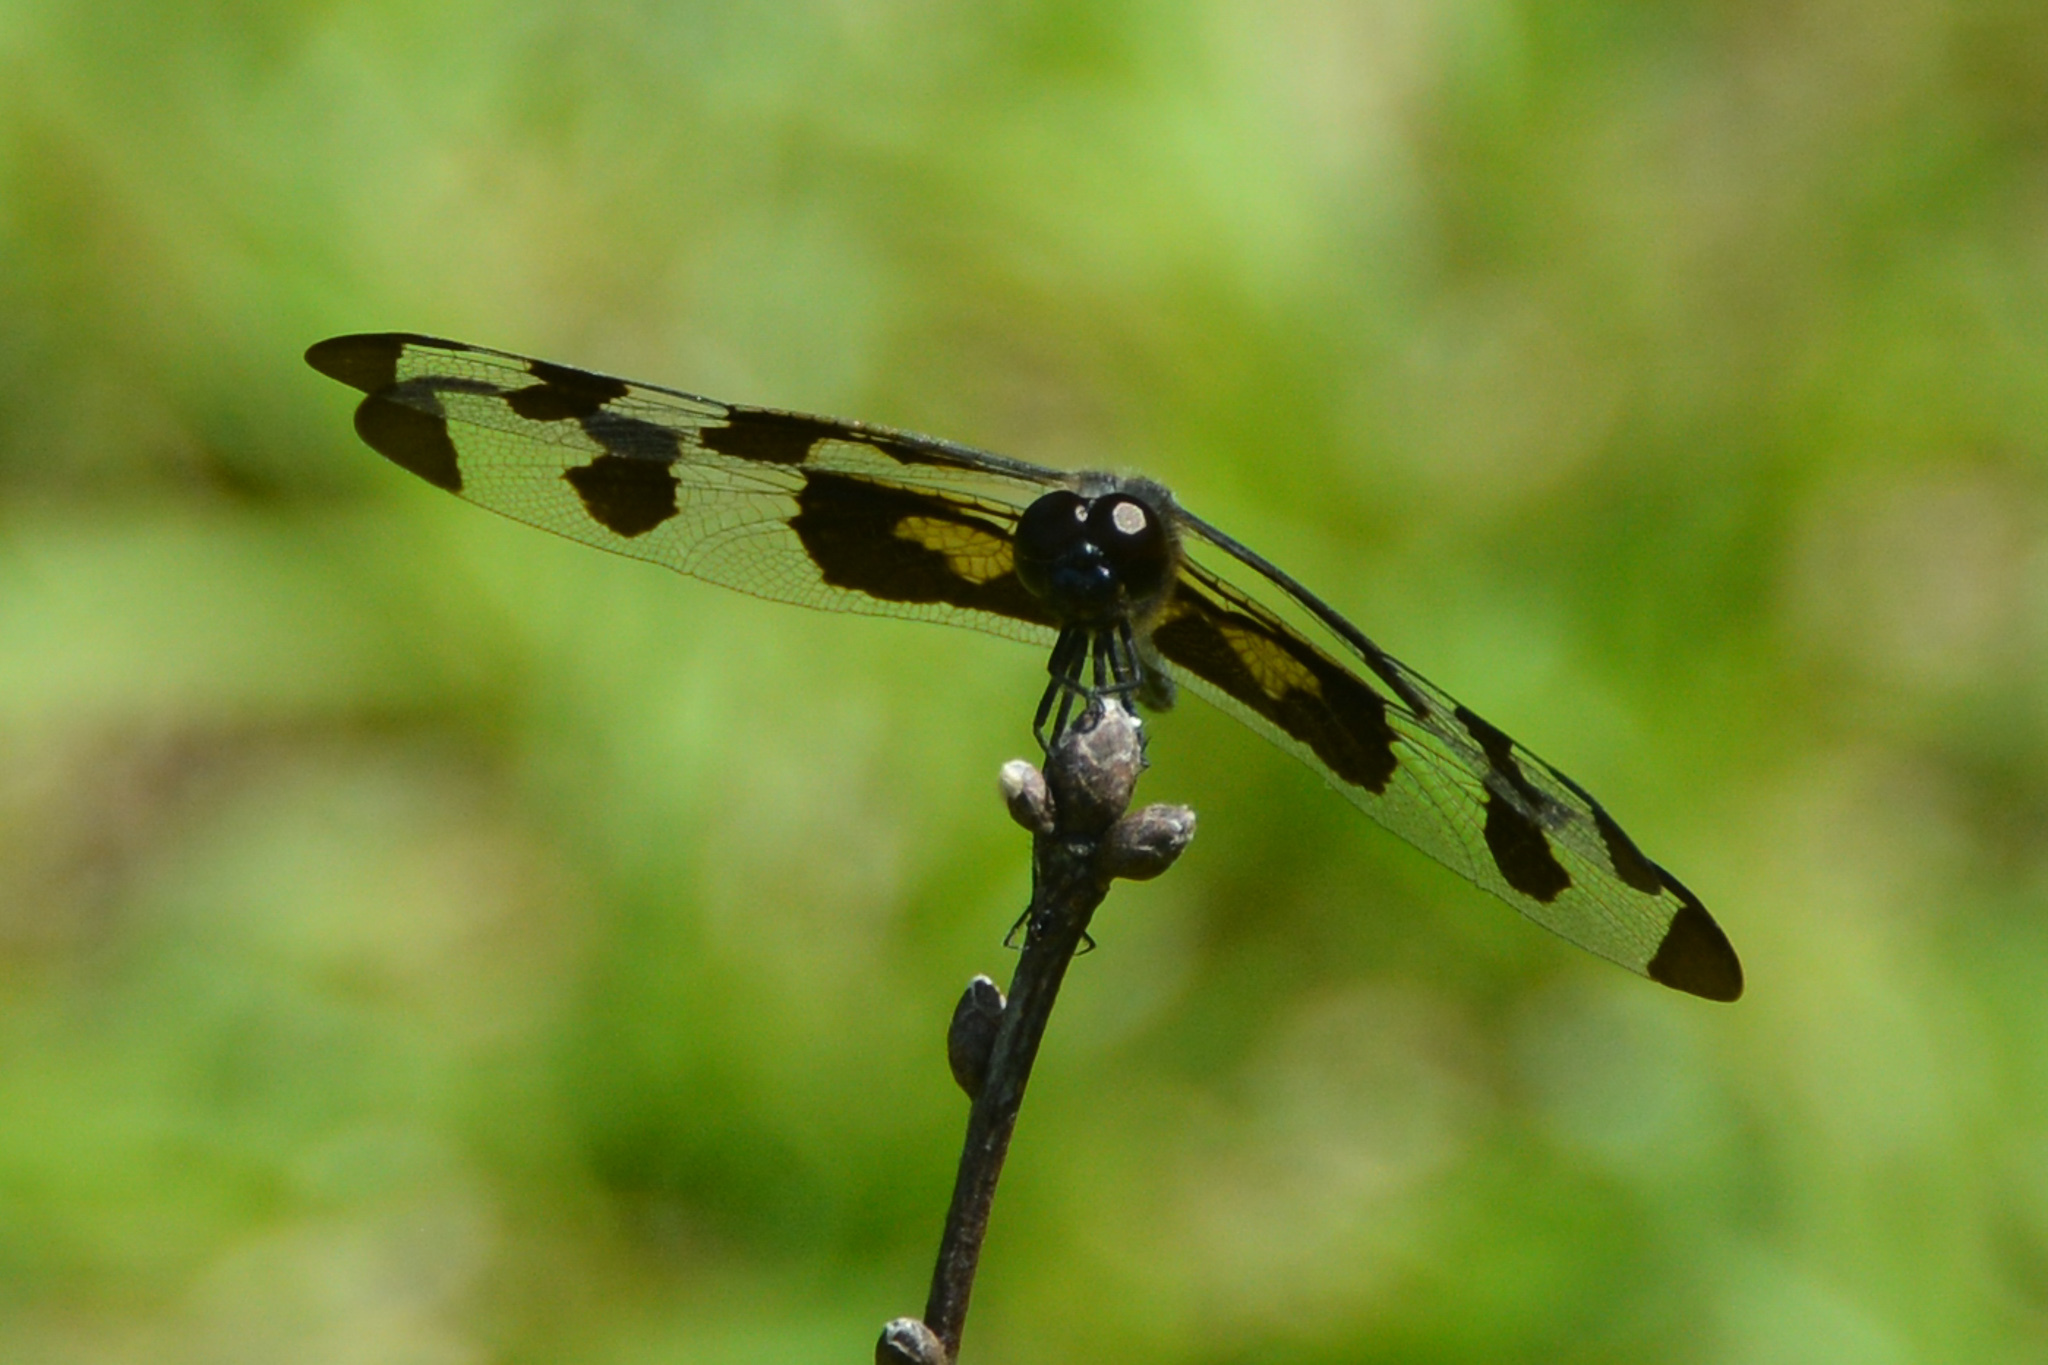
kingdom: Animalia
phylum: Arthropoda
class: Insecta
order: Odonata
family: Libellulidae
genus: Celithemis
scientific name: Celithemis fasciata
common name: Banded pennant
